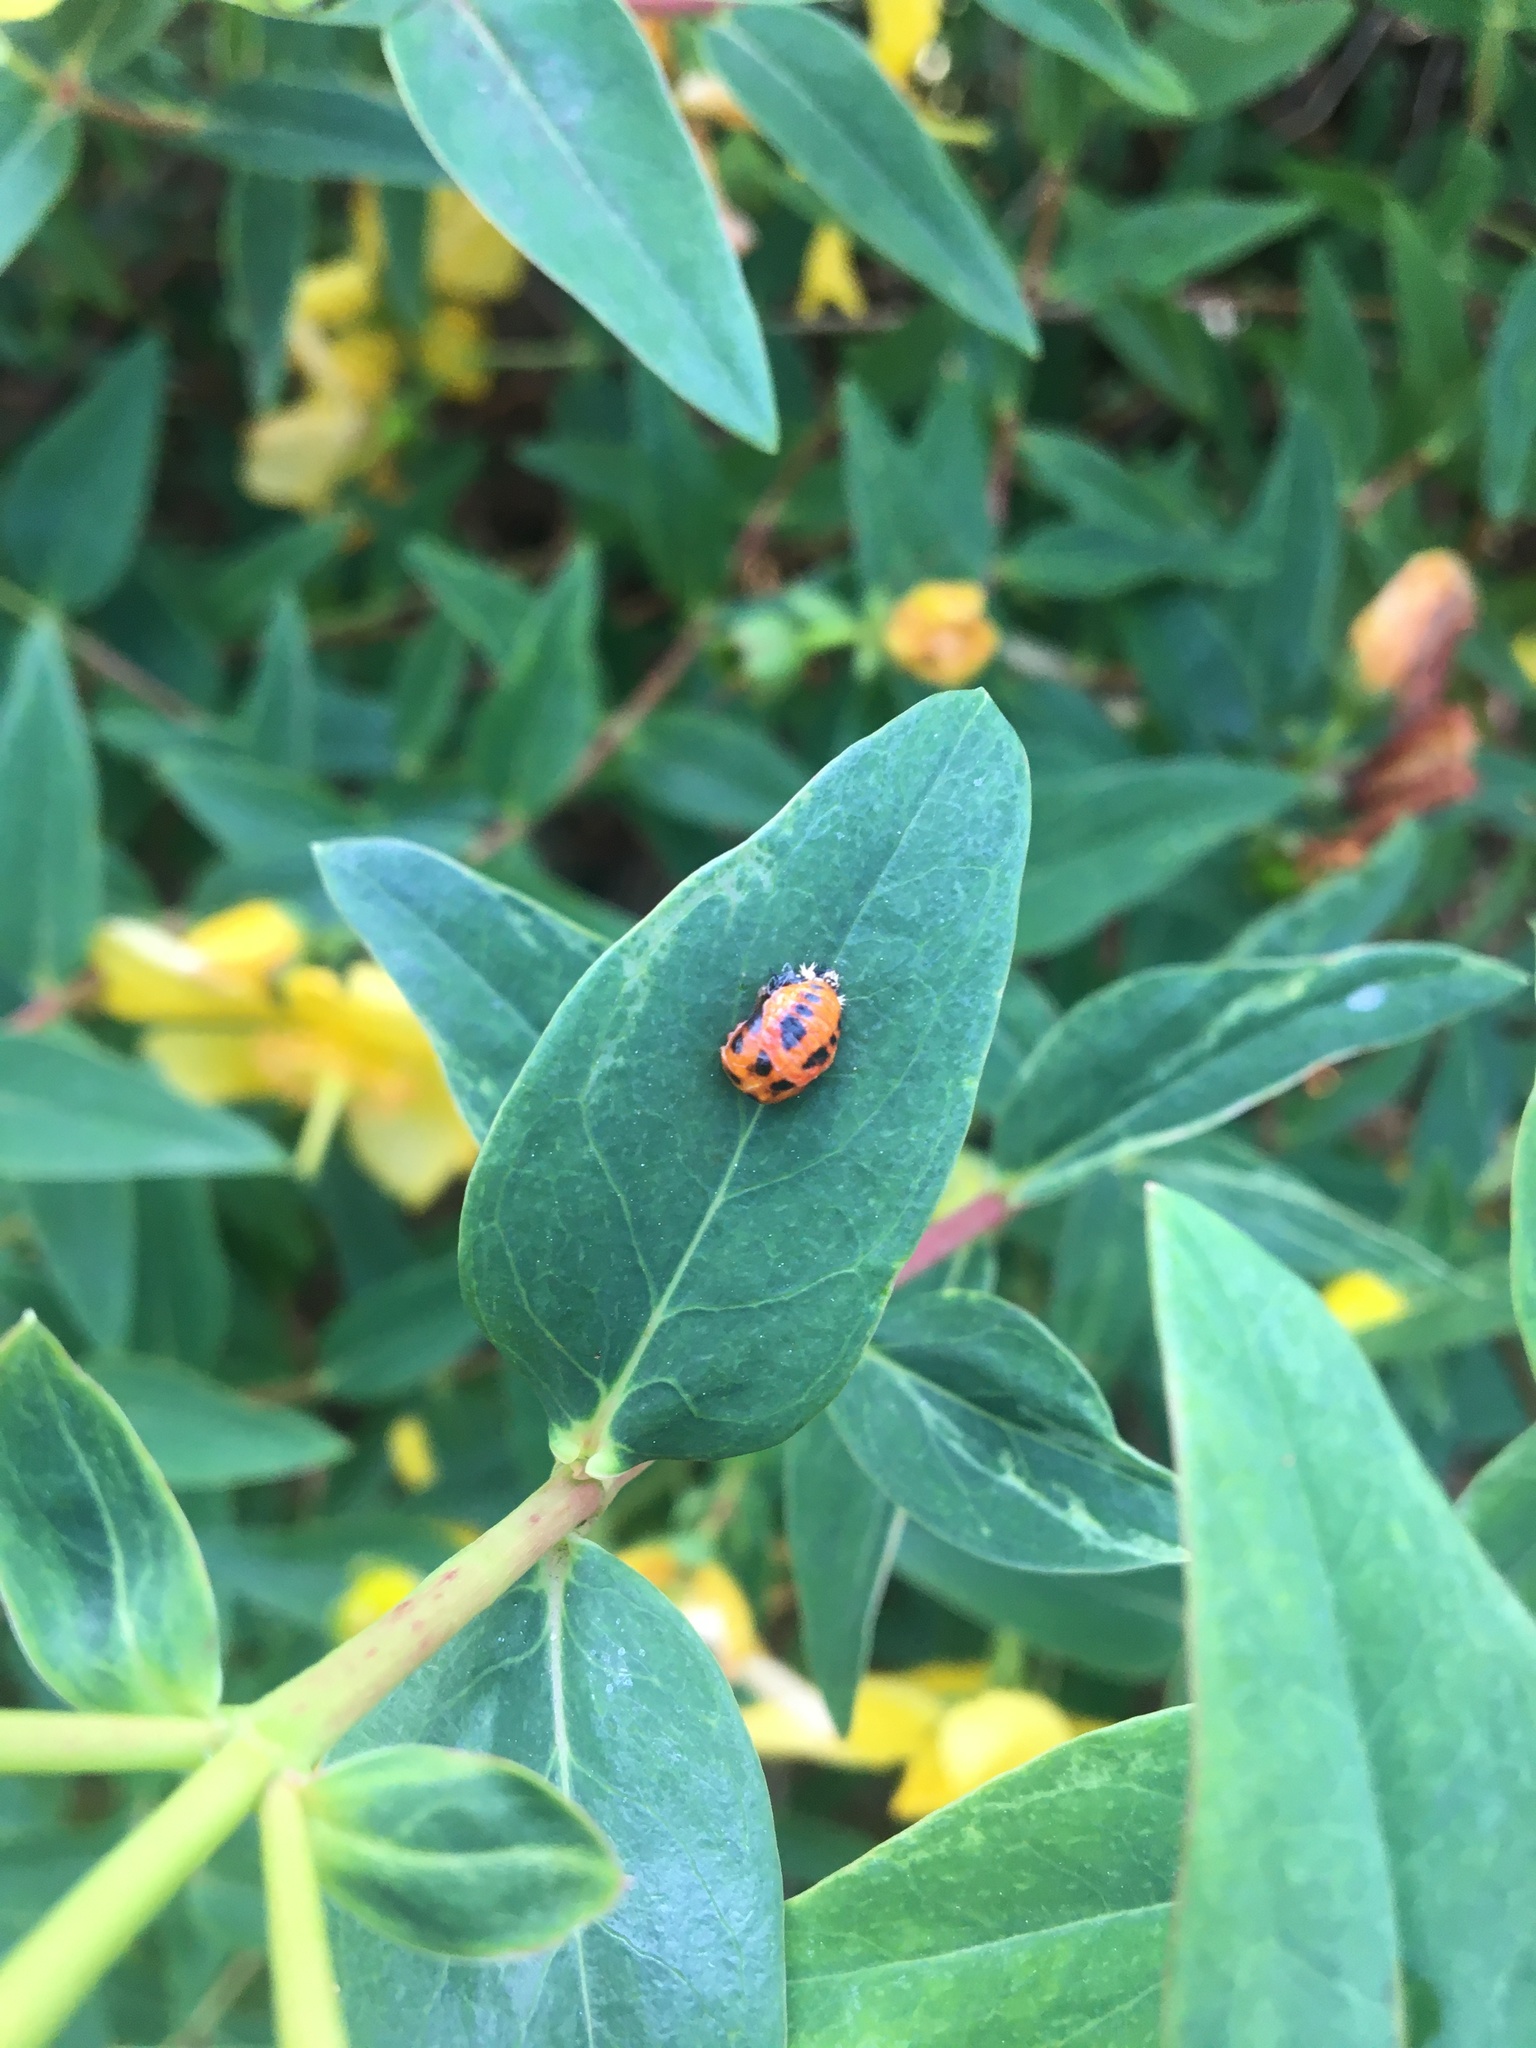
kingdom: Animalia
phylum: Arthropoda
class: Insecta
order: Coleoptera
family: Coccinellidae
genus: Harmonia
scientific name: Harmonia axyridis
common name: Harlequin ladybird
